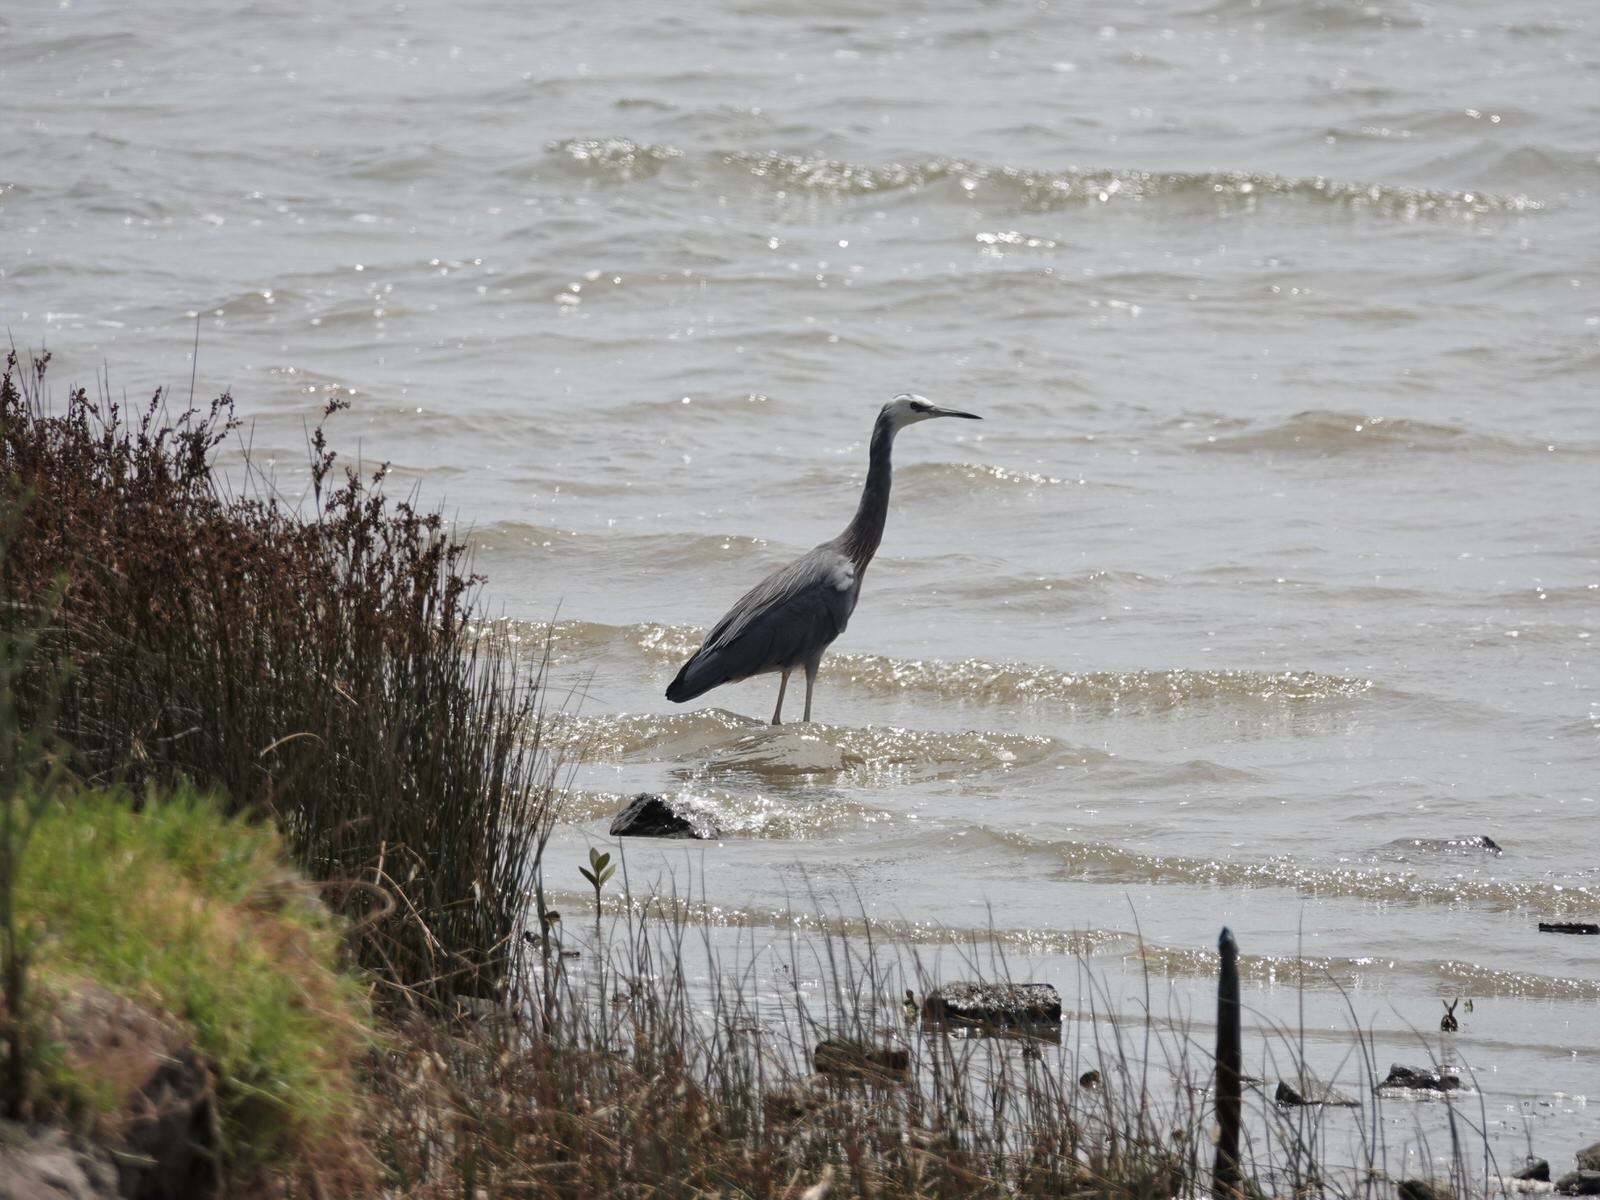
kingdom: Animalia
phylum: Chordata
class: Aves
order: Pelecaniformes
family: Ardeidae
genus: Egretta
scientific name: Egretta novaehollandiae
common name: White-faced heron
